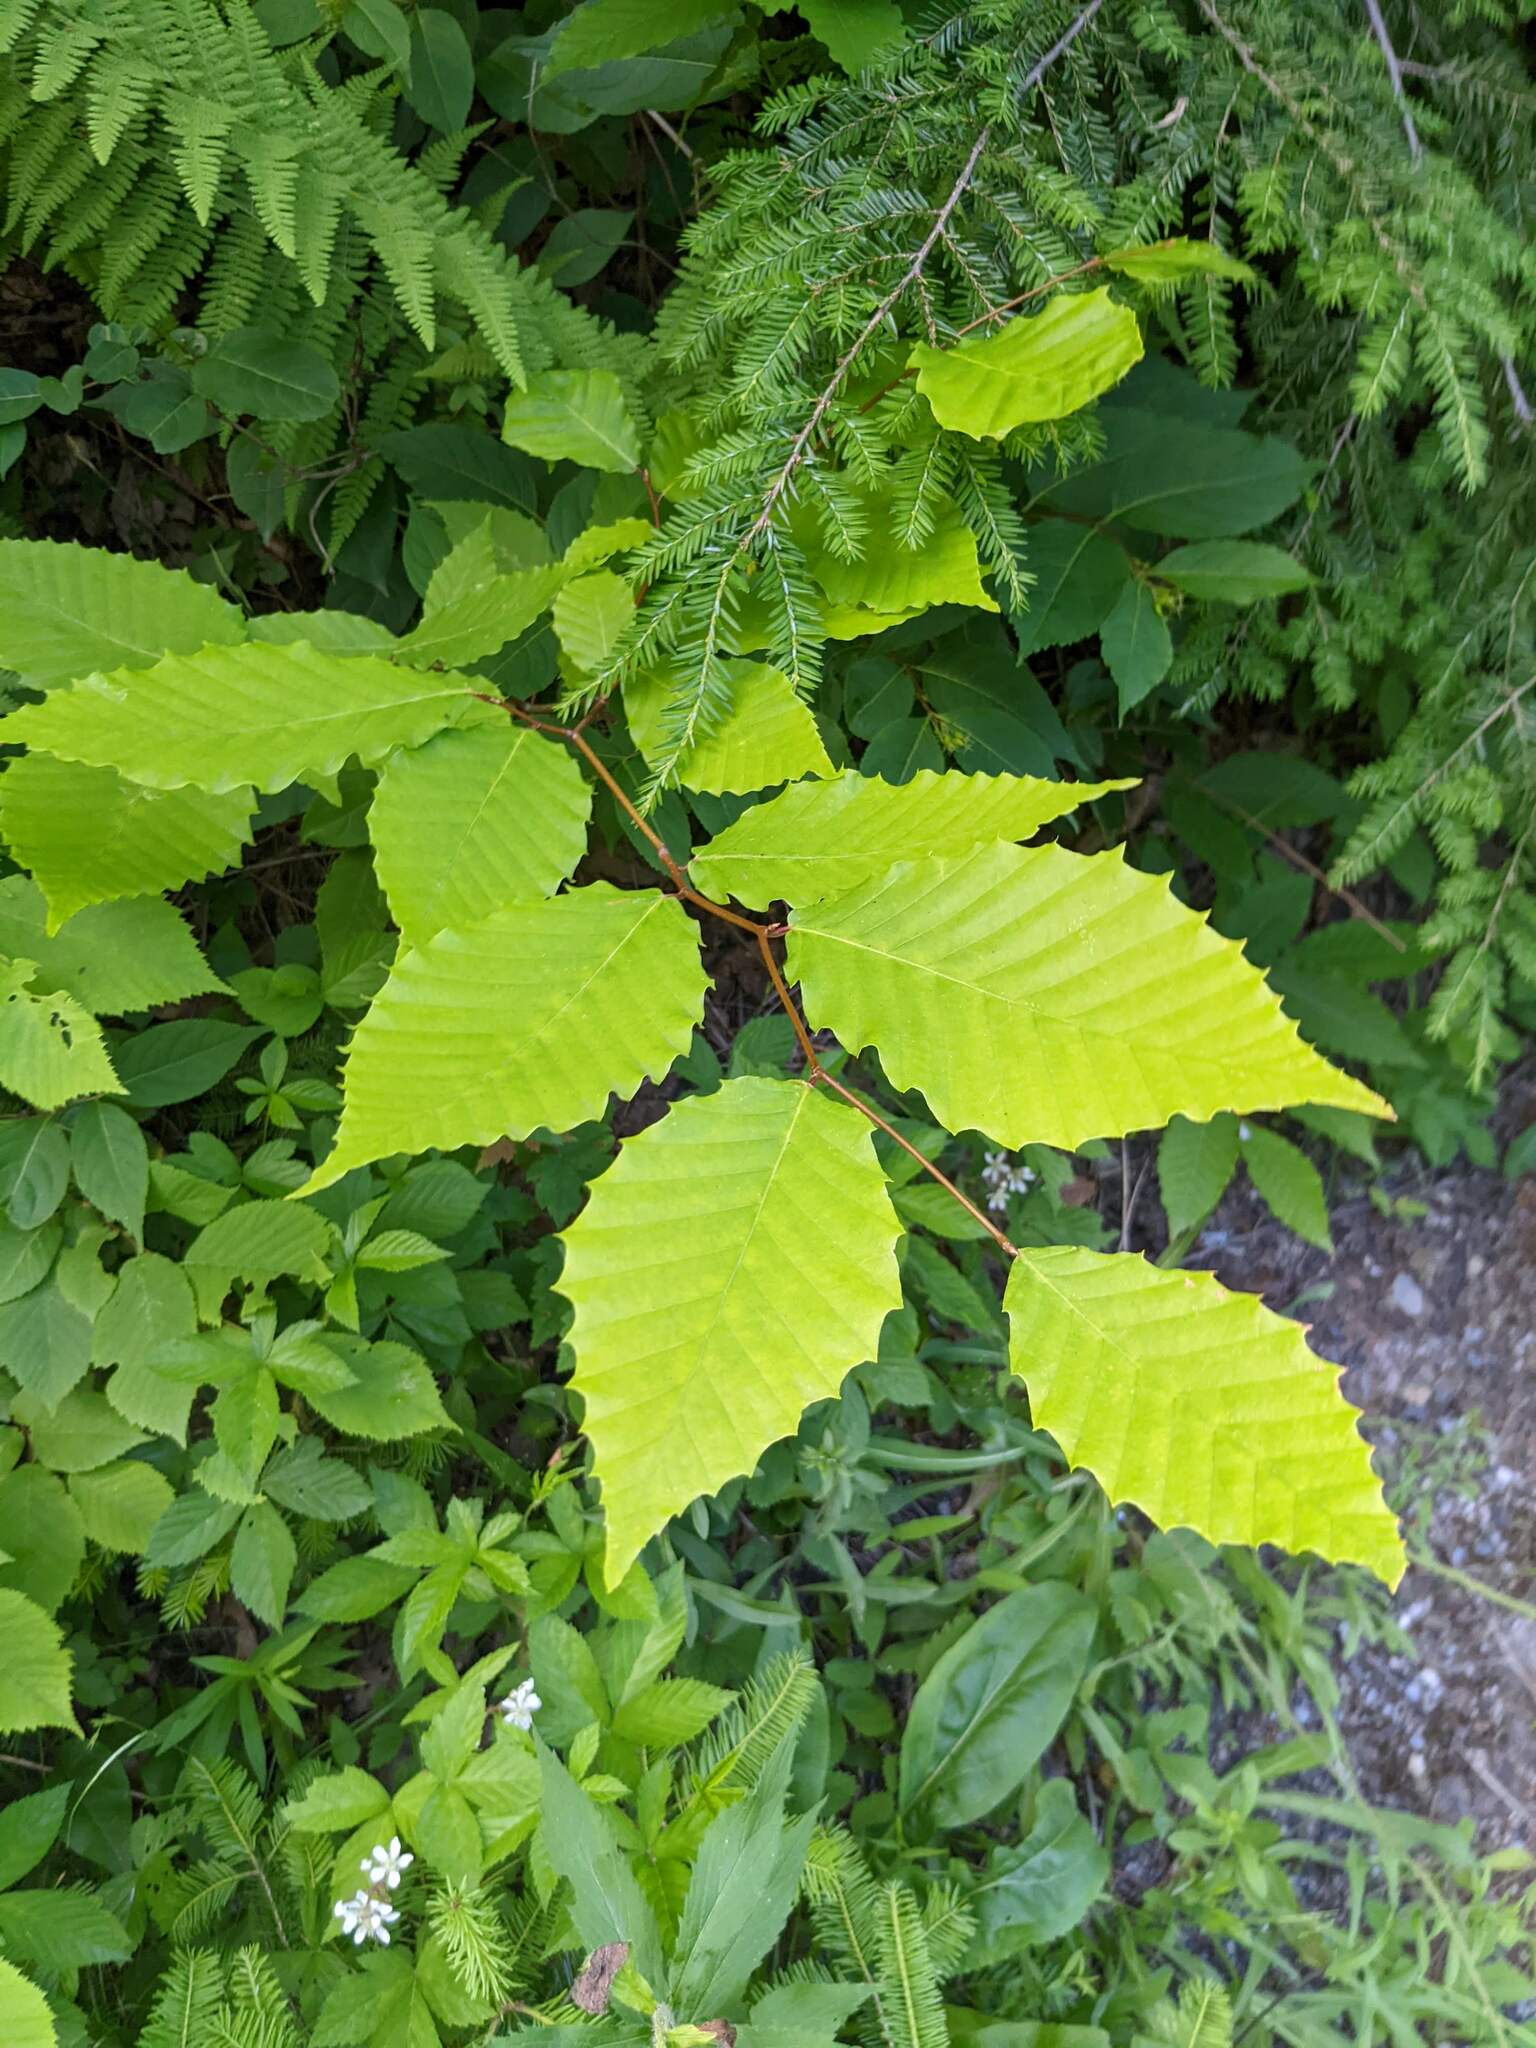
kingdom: Plantae
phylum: Tracheophyta
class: Magnoliopsida
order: Fagales
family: Fagaceae
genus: Fagus
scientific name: Fagus grandifolia
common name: American beech
